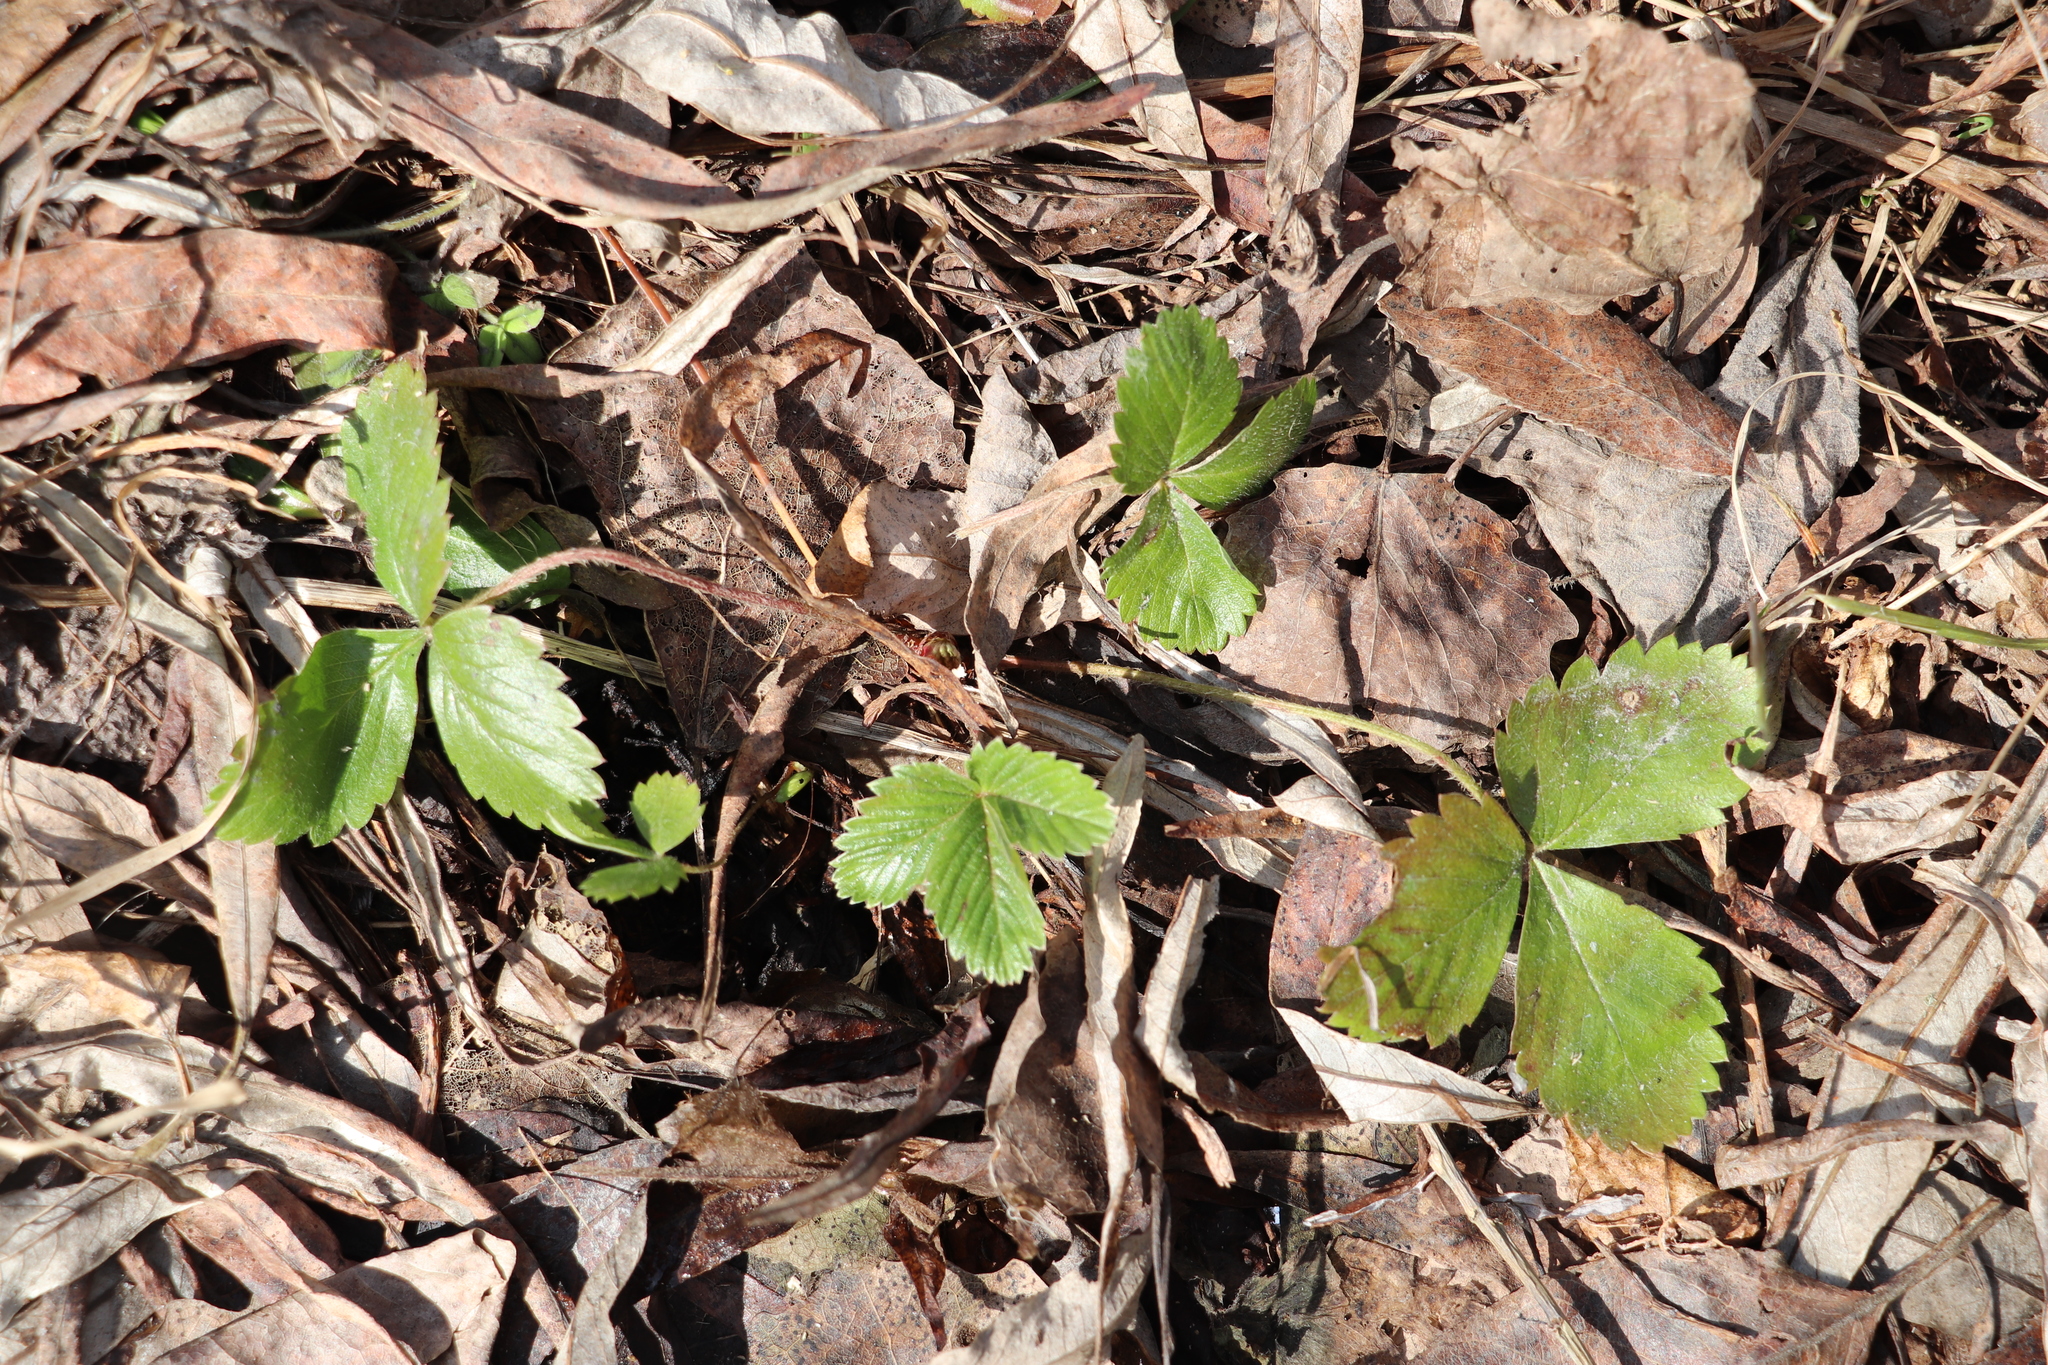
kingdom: Plantae
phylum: Tracheophyta
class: Magnoliopsida
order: Rosales
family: Rosaceae
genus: Fragaria
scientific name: Fragaria vesca
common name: Wild strawberry
